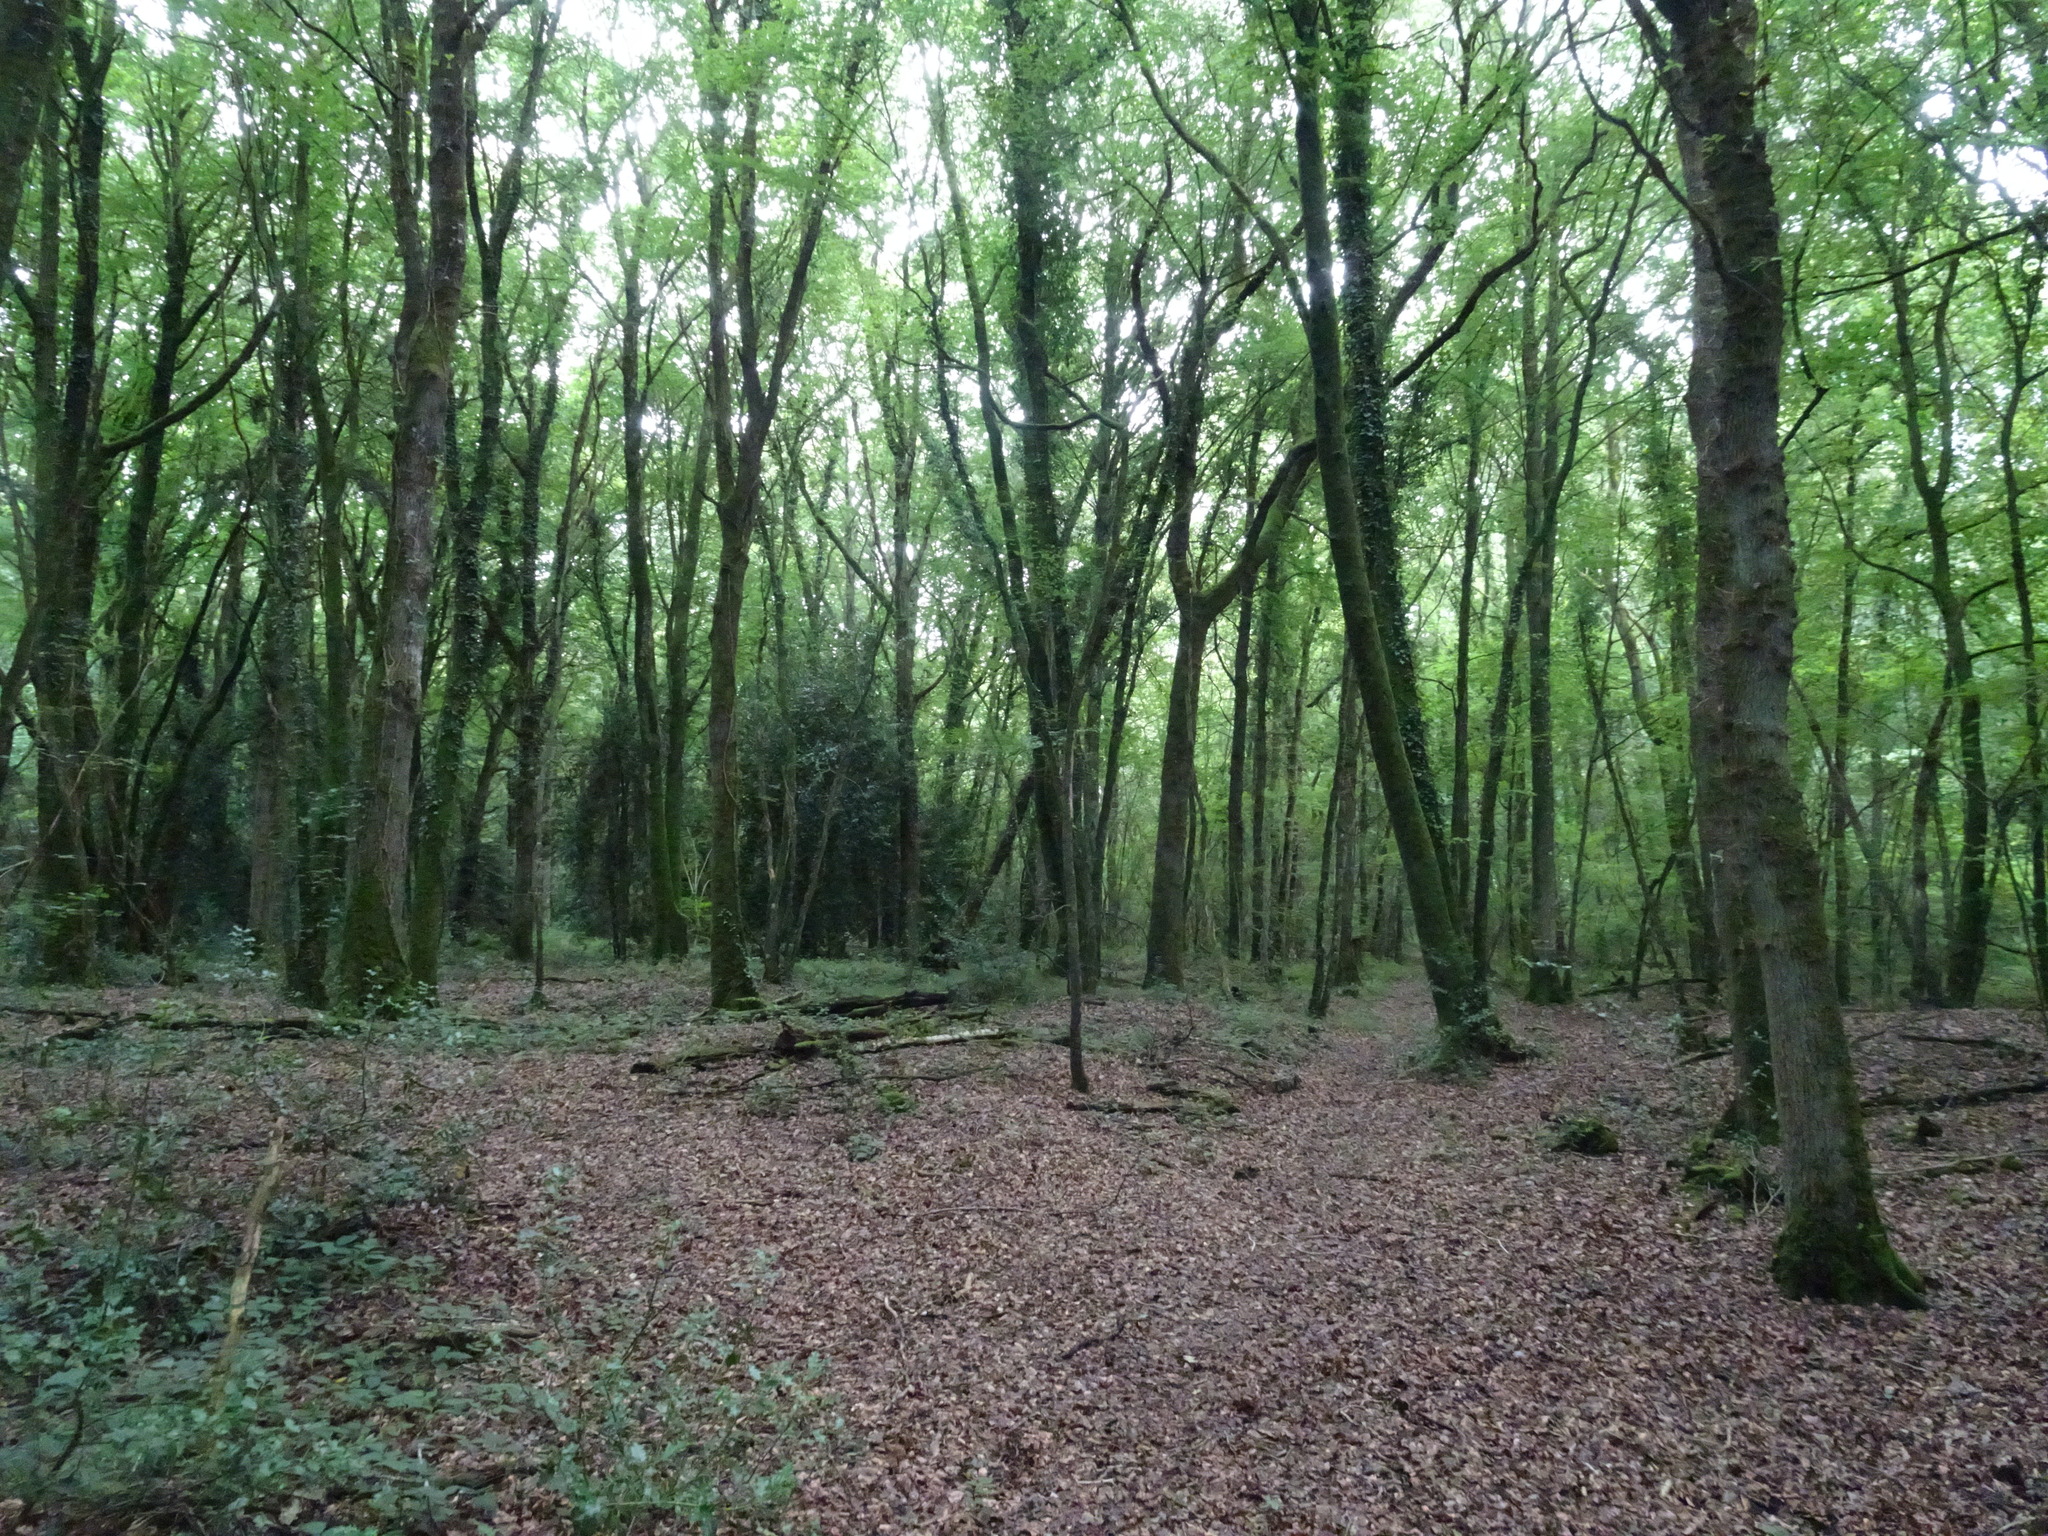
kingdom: Plantae
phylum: Tracheophyta
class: Magnoliopsida
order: Fagales
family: Fagaceae
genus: Fagus
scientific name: Fagus sylvatica
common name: Beech
